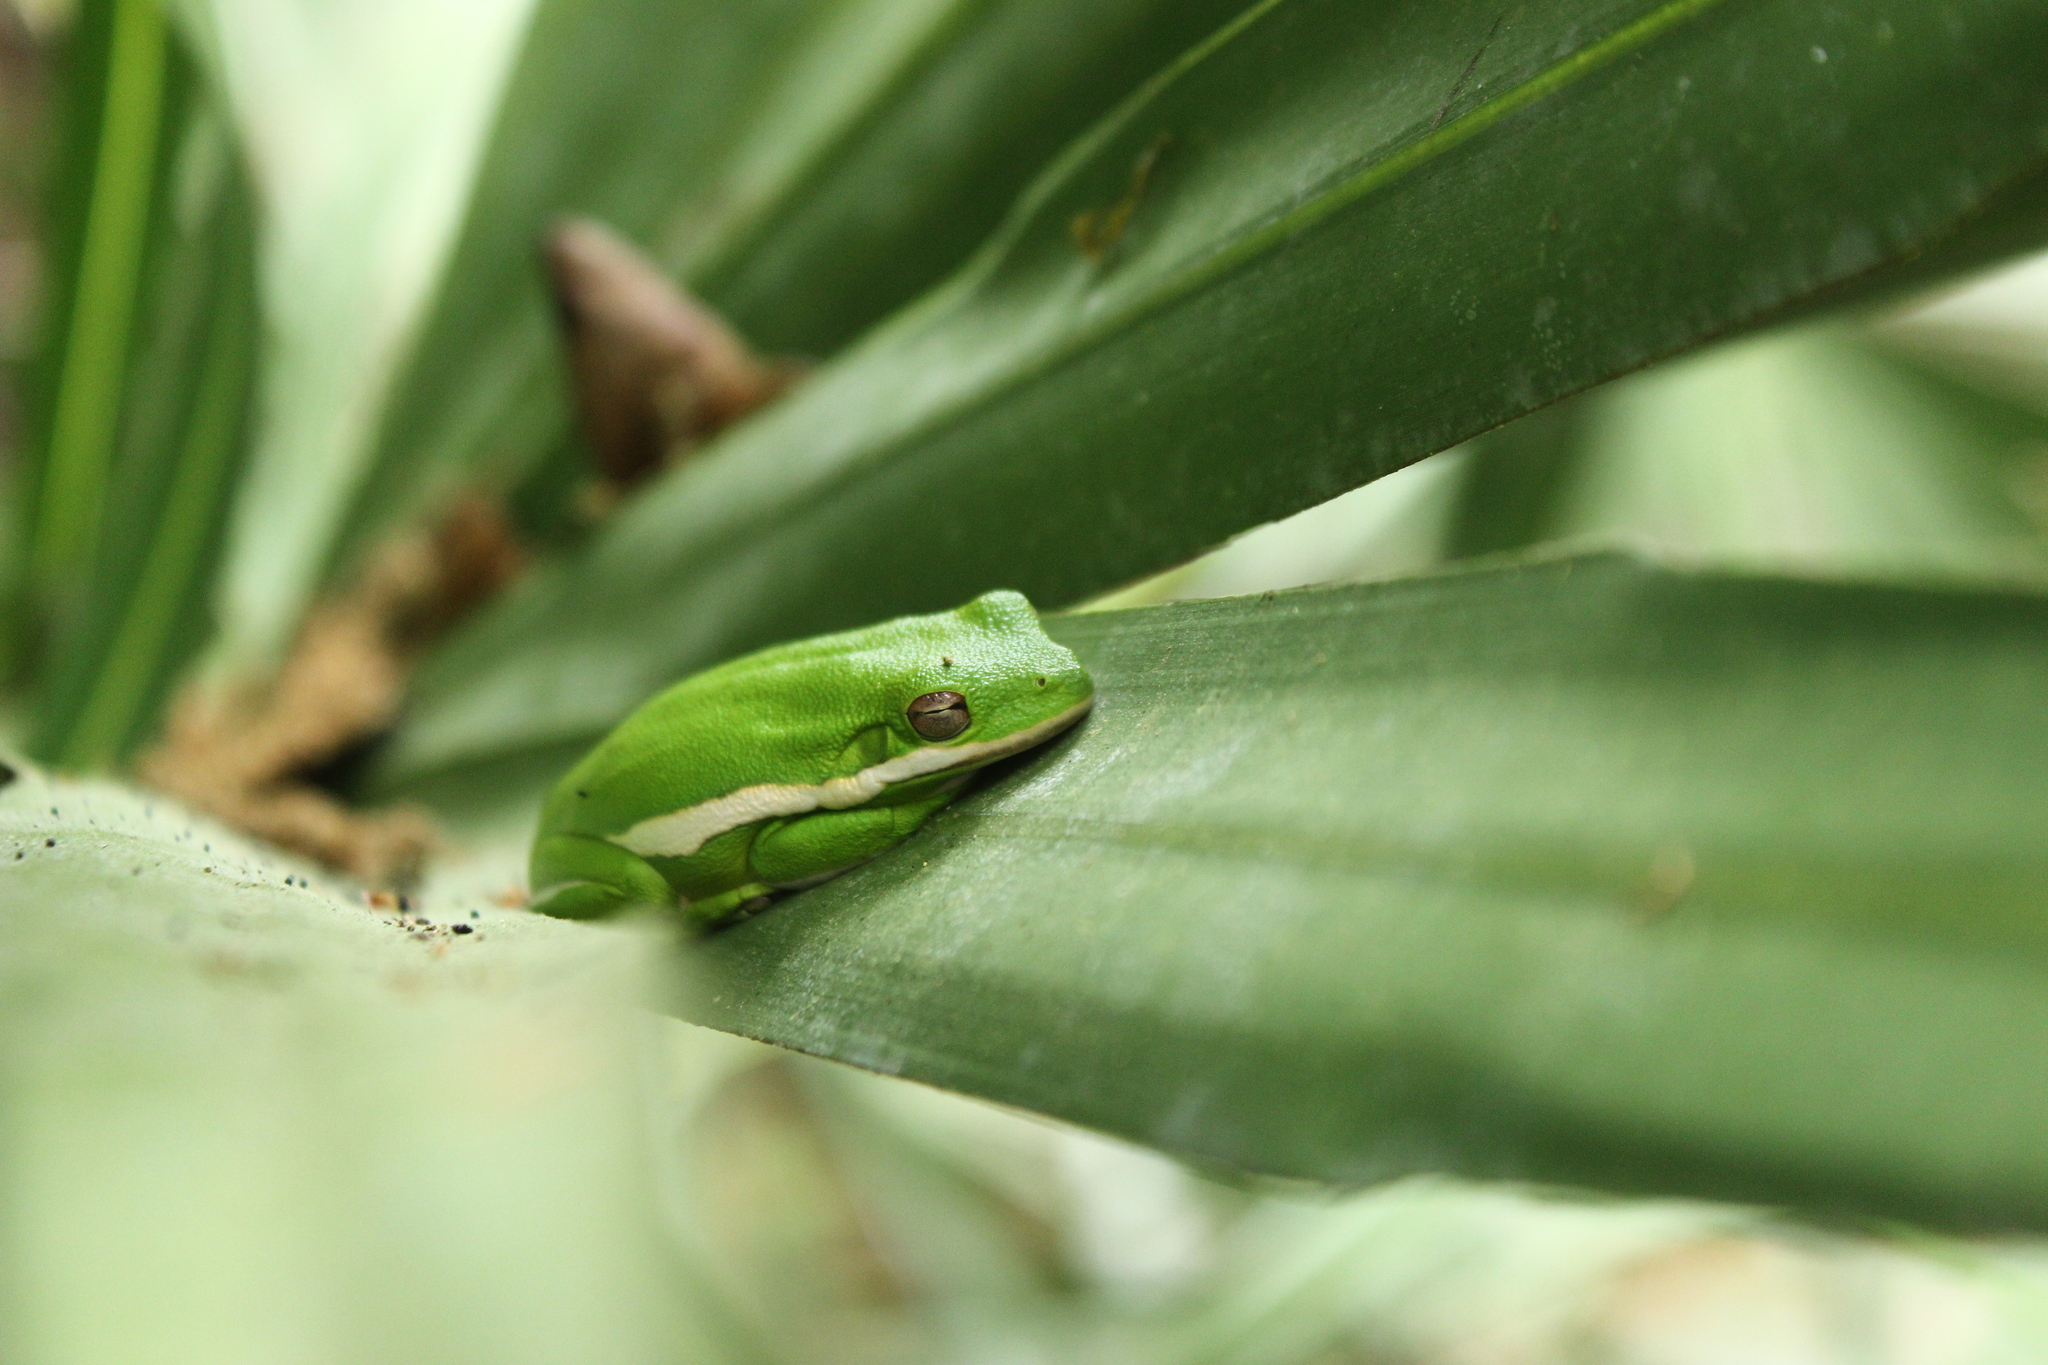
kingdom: Animalia
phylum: Chordata
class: Amphibia
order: Anura
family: Hylidae
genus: Dryophytes
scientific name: Dryophytes cinereus
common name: Green treefrog
